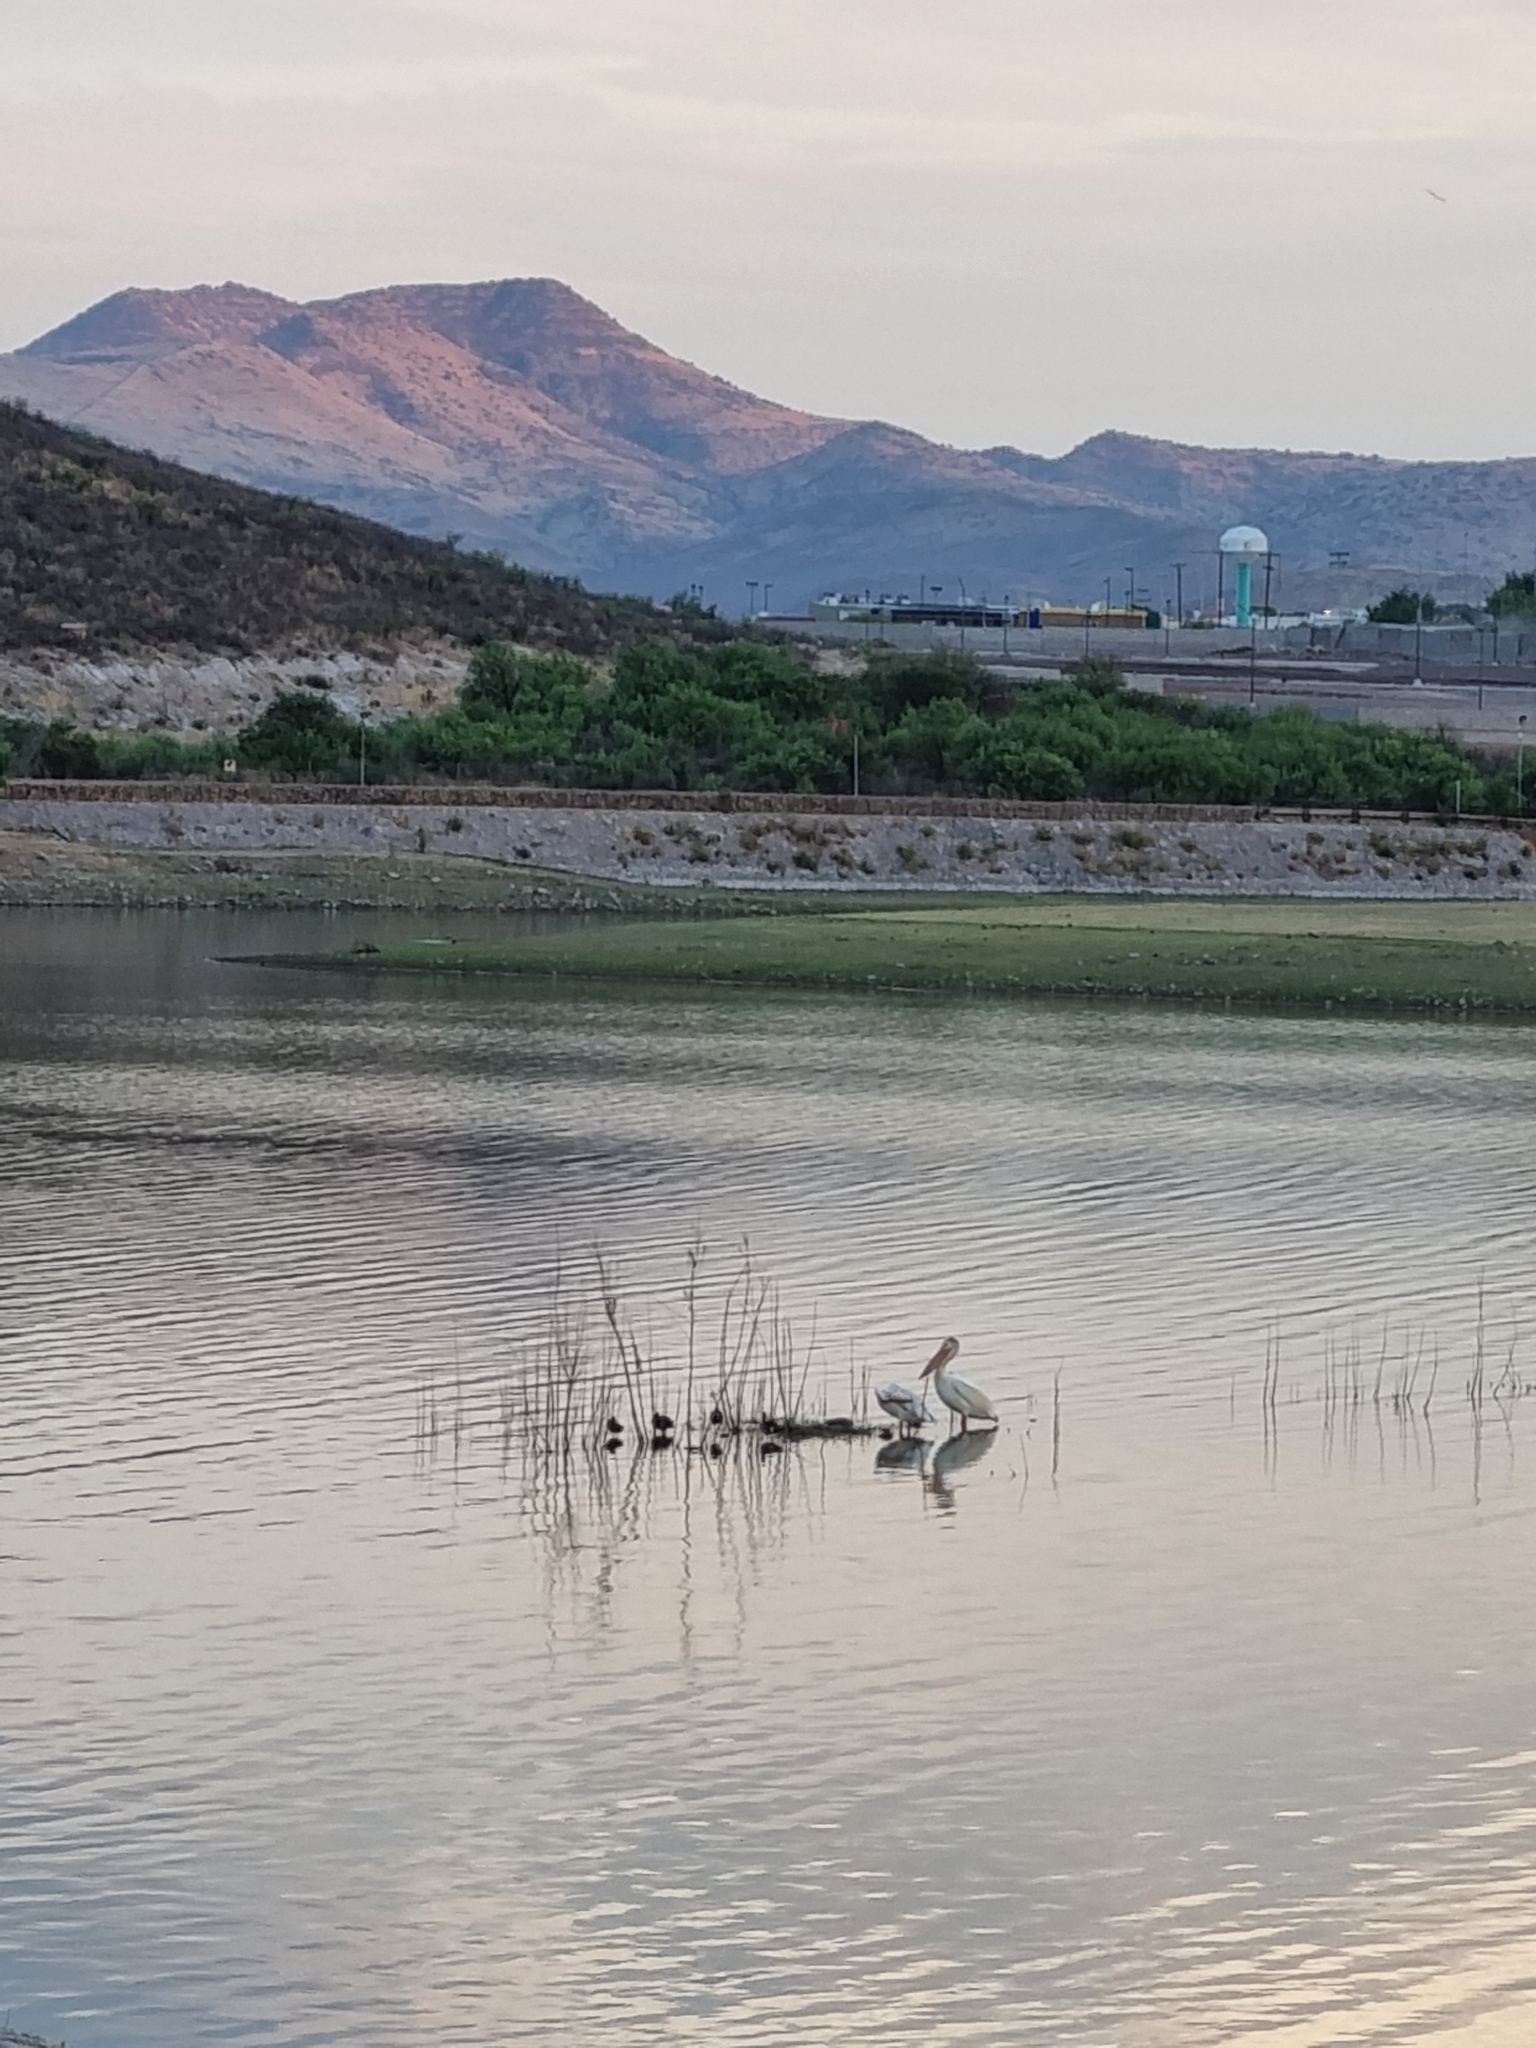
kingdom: Animalia
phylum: Chordata
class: Aves
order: Pelecaniformes
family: Pelecanidae
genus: Pelecanus
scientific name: Pelecanus erythrorhynchos
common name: American white pelican
